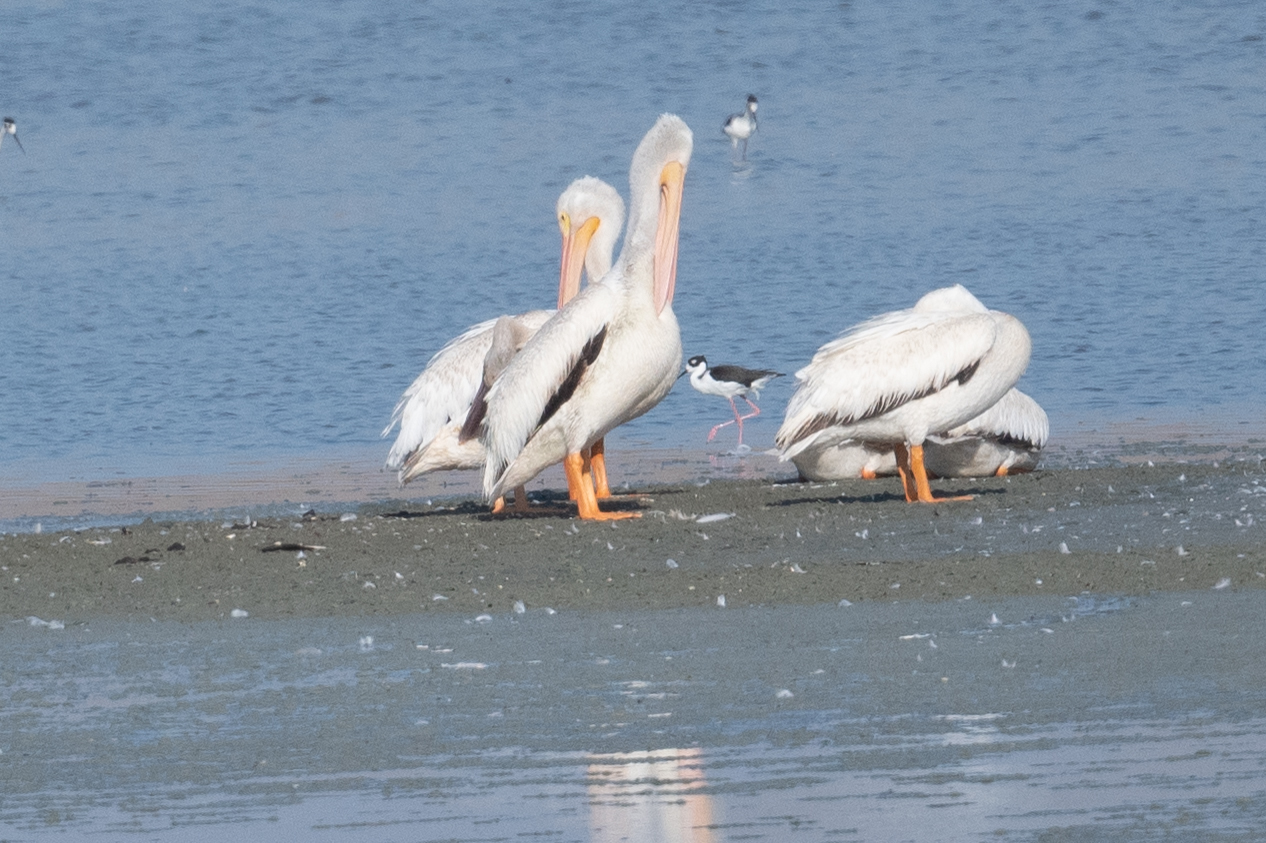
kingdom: Animalia
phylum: Chordata
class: Aves
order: Pelecaniformes
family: Pelecanidae
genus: Pelecanus
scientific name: Pelecanus erythrorhynchos
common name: American white pelican
